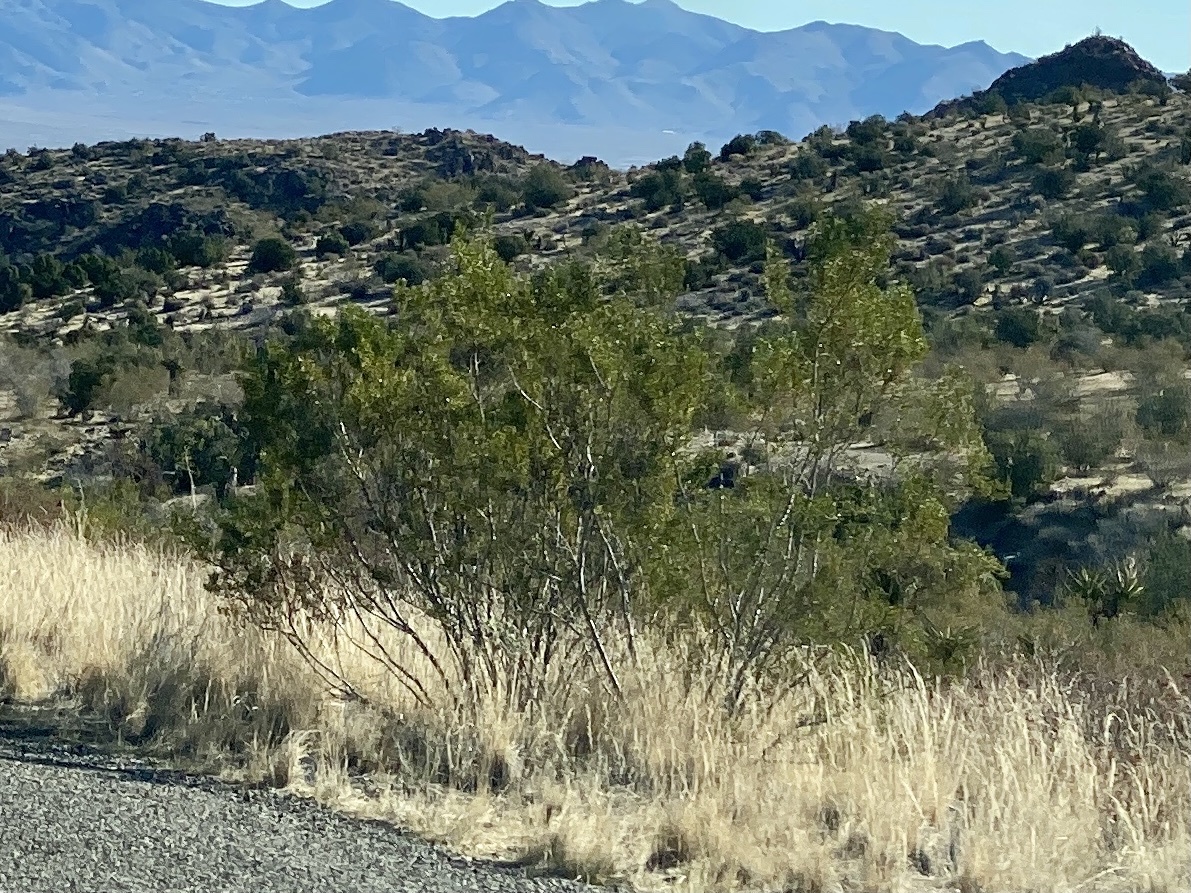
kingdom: Plantae
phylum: Tracheophyta
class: Magnoliopsida
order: Zygophyllales
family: Zygophyllaceae
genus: Larrea
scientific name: Larrea tridentata
